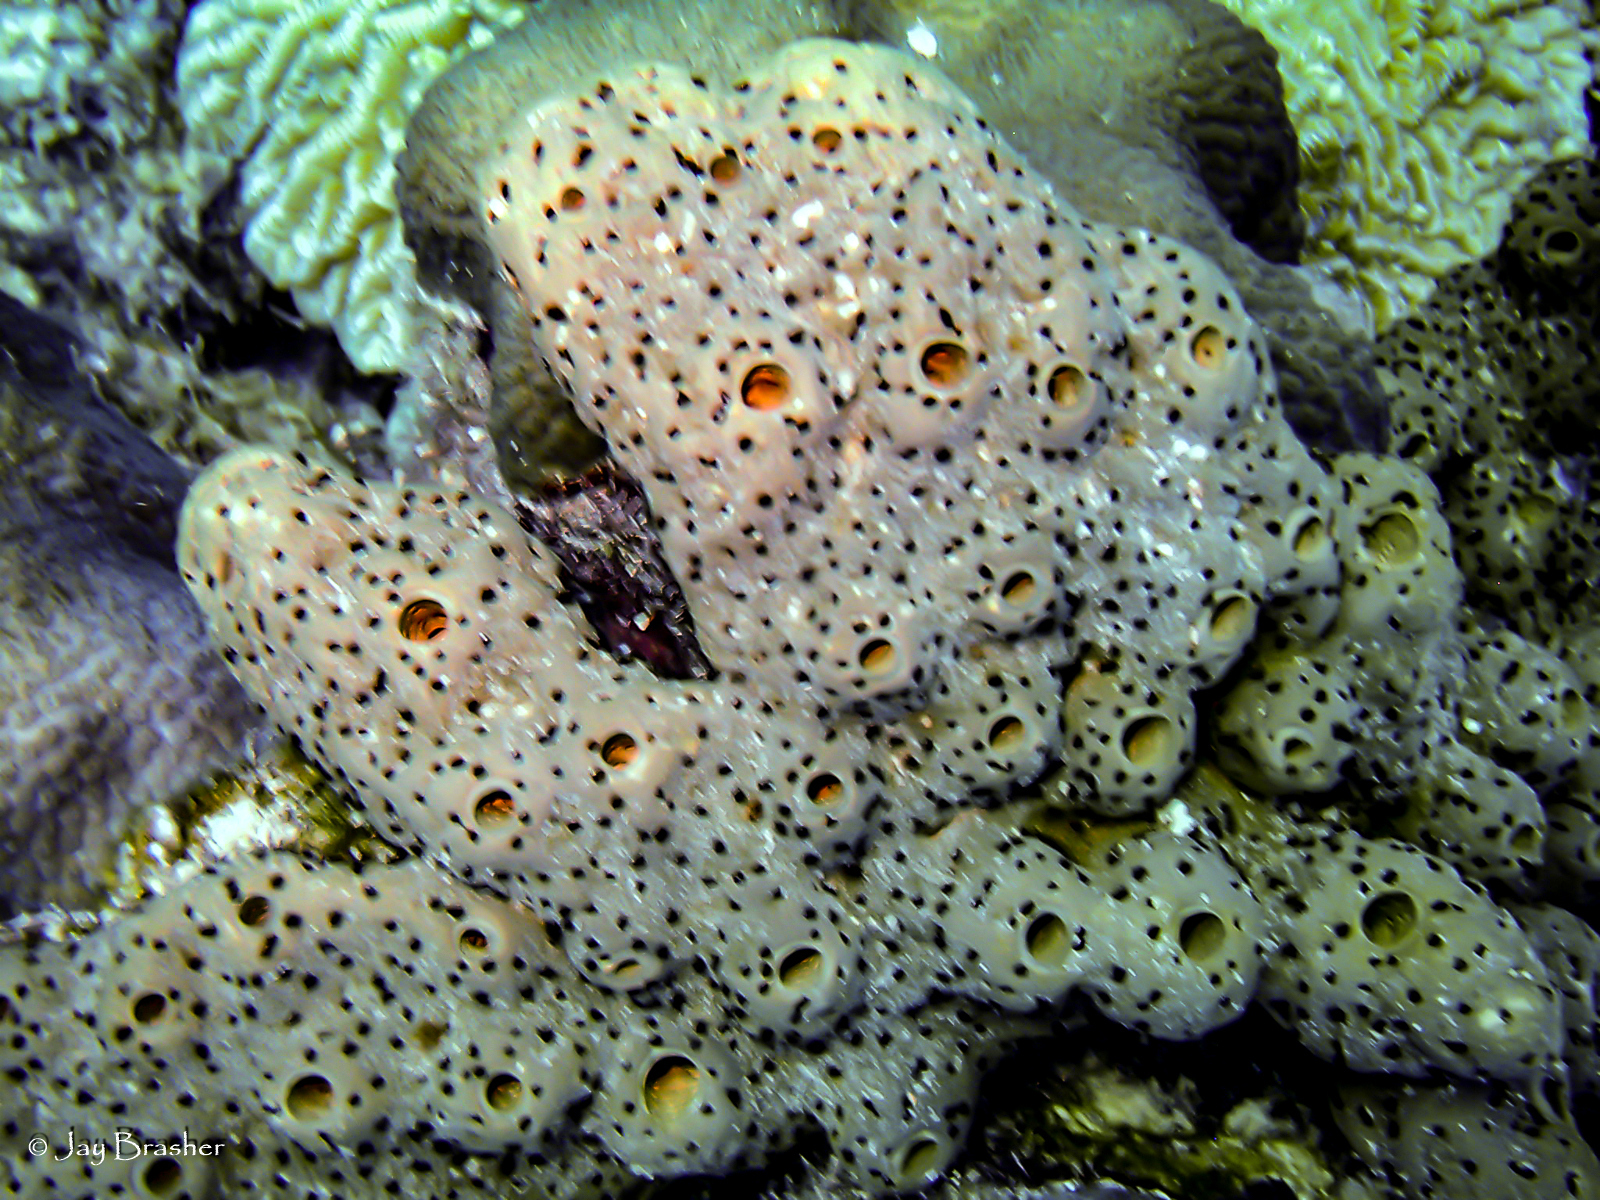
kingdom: Animalia
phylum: Porifera
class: Demospongiae
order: Agelasida
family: Agelasidae
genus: Agelas
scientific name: Agelas conifera
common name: Brown tube sponge
